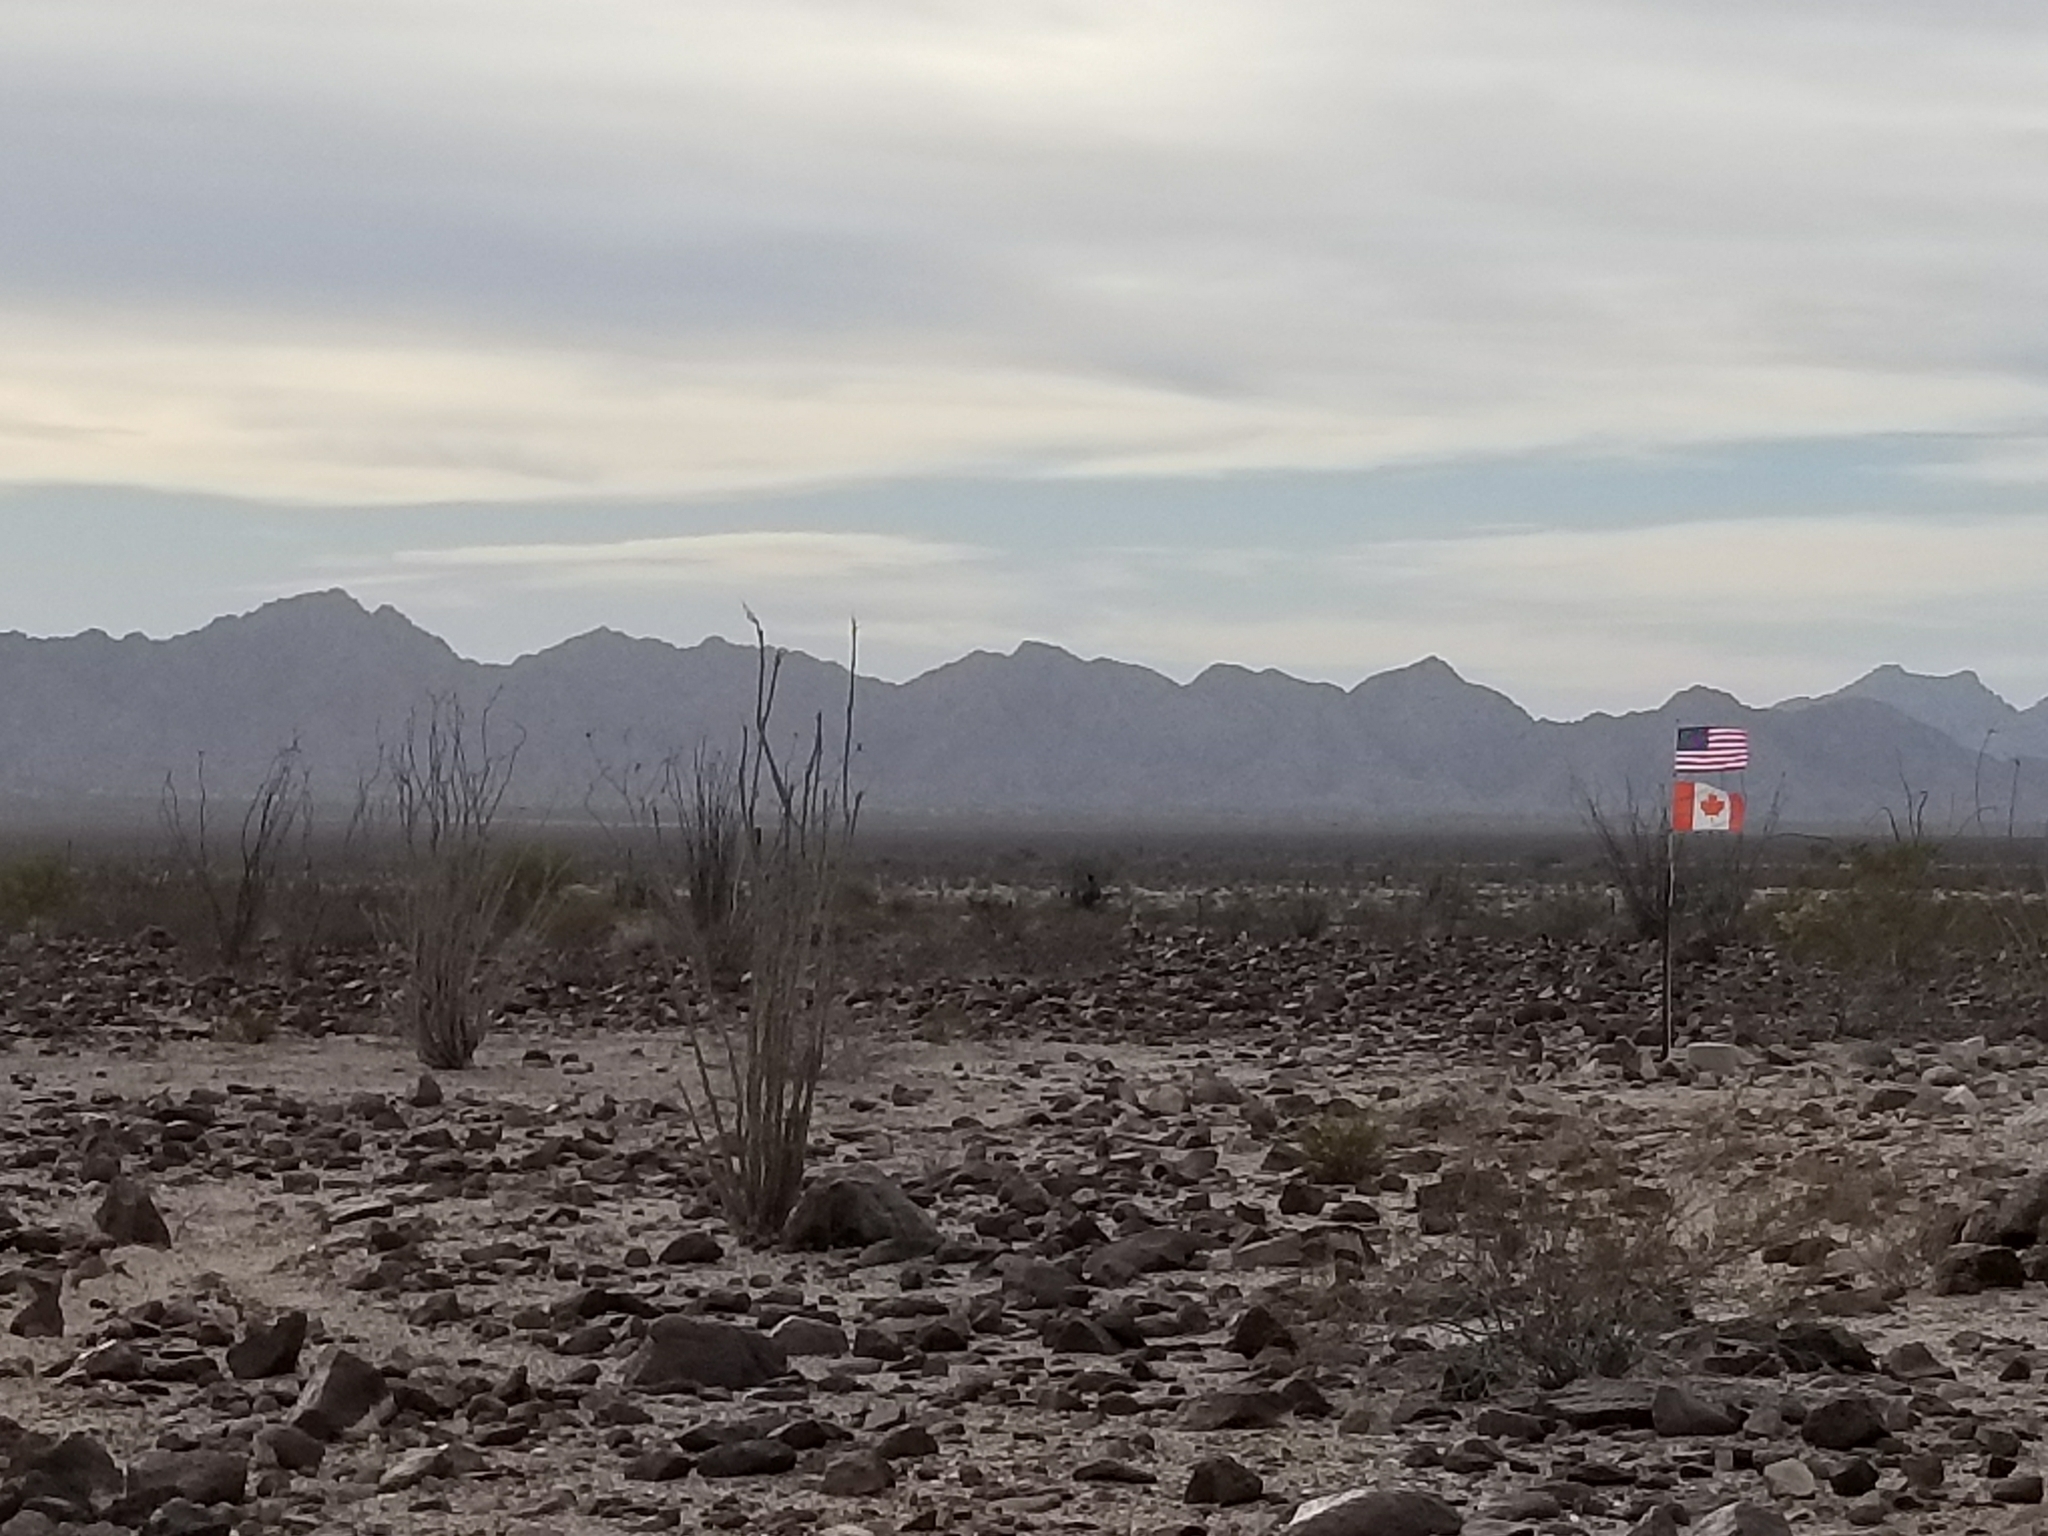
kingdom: Plantae
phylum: Tracheophyta
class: Magnoliopsida
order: Ericales
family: Fouquieriaceae
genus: Fouquieria
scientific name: Fouquieria splendens
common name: Vine-cactus
